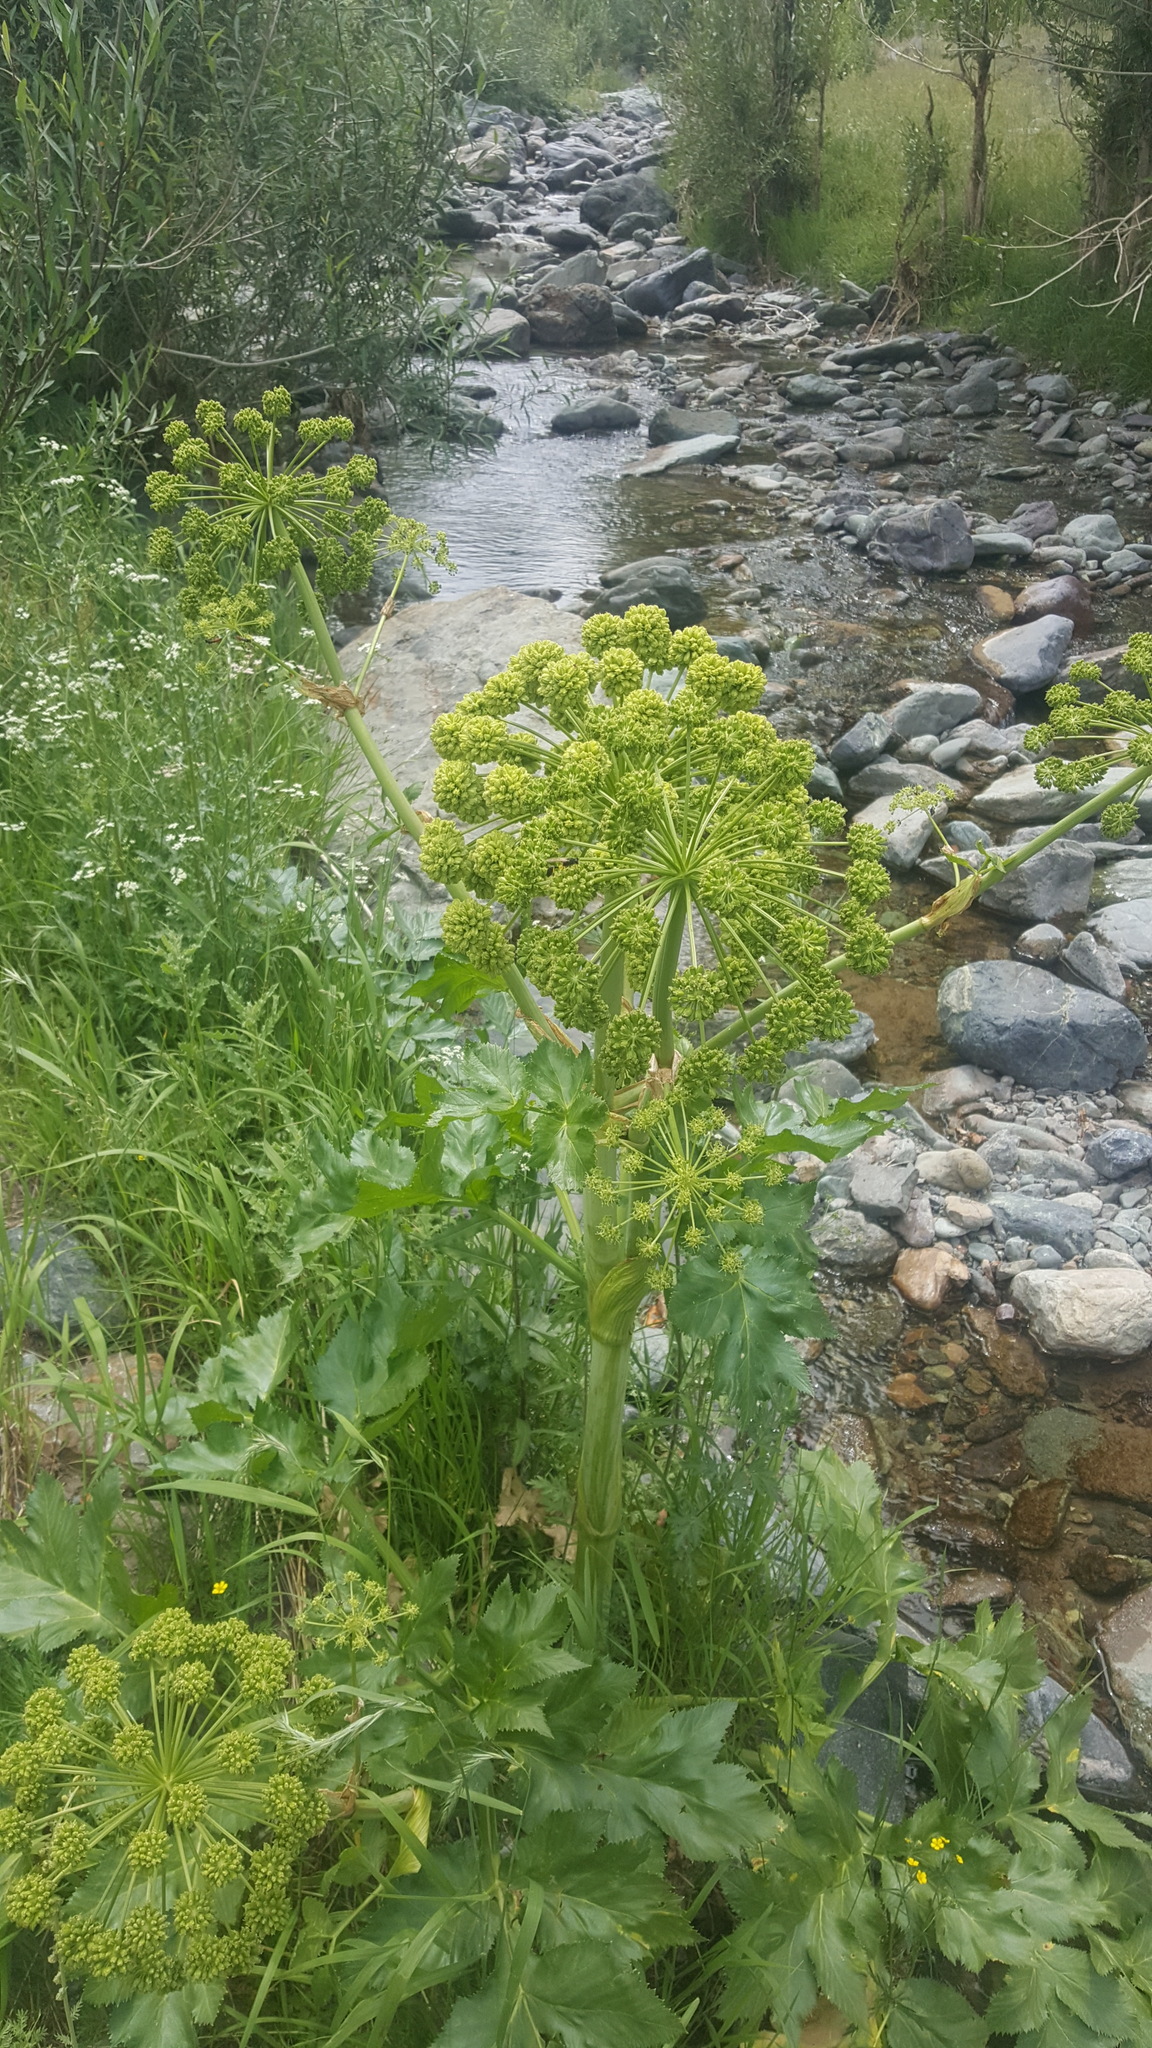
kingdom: Plantae
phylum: Tracheophyta
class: Magnoliopsida
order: Apiales
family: Apiaceae
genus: Angelica
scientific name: Angelica decurrens
